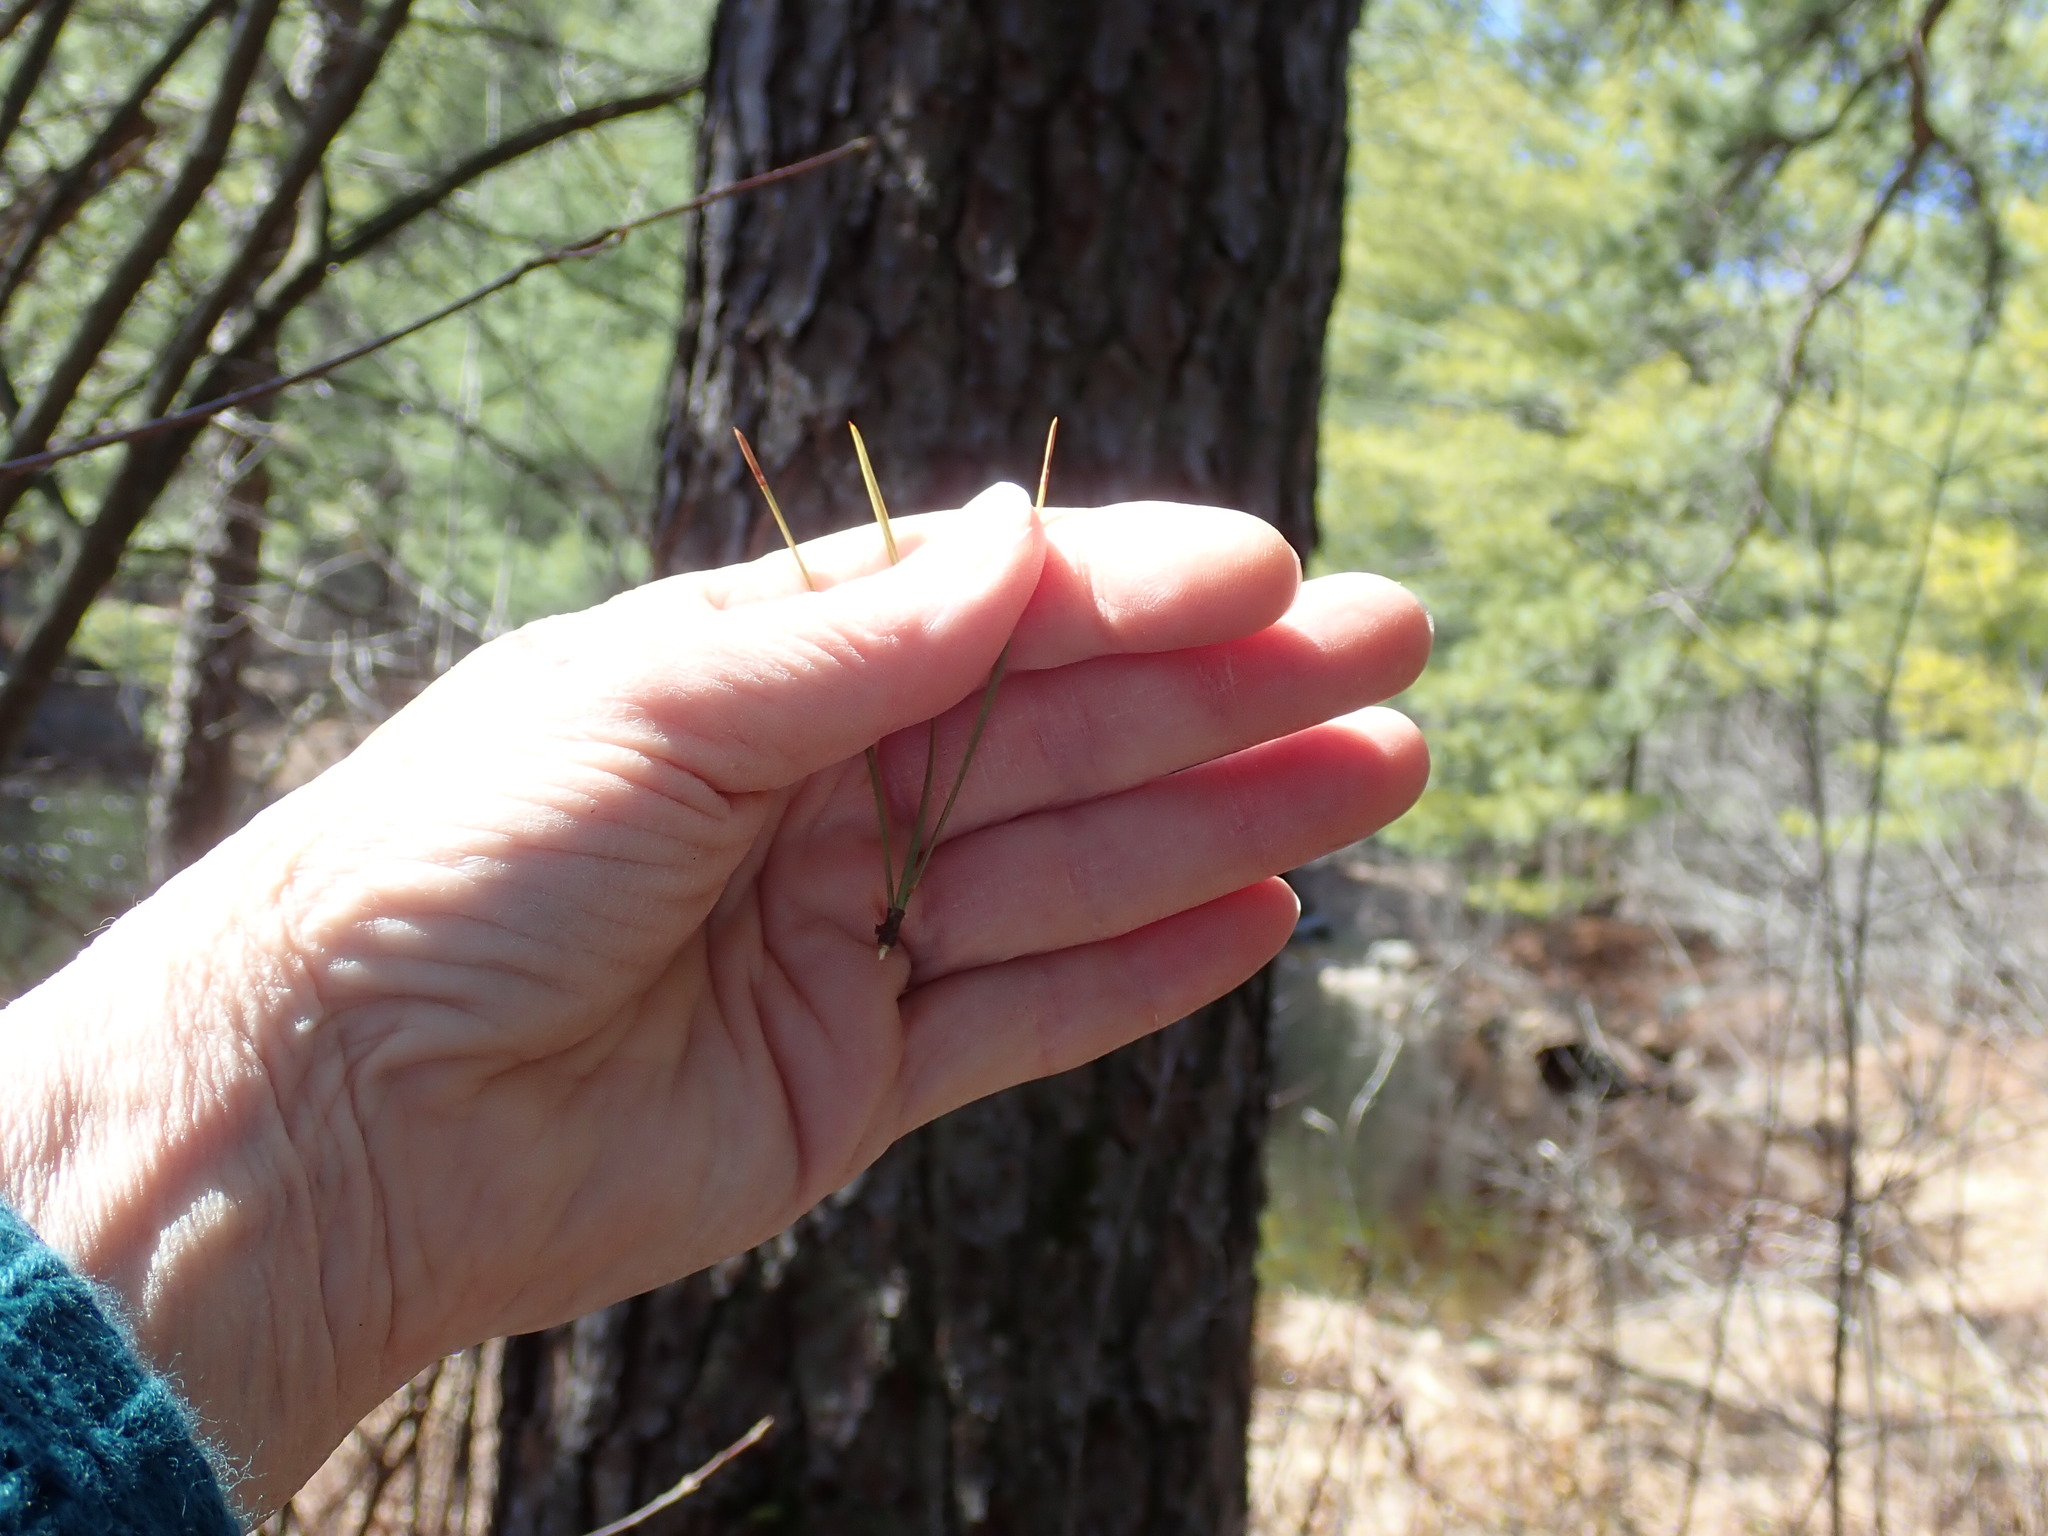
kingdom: Plantae
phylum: Tracheophyta
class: Pinopsida
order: Pinales
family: Pinaceae
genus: Pinus
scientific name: Pinus rigida
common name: Pitch pine
